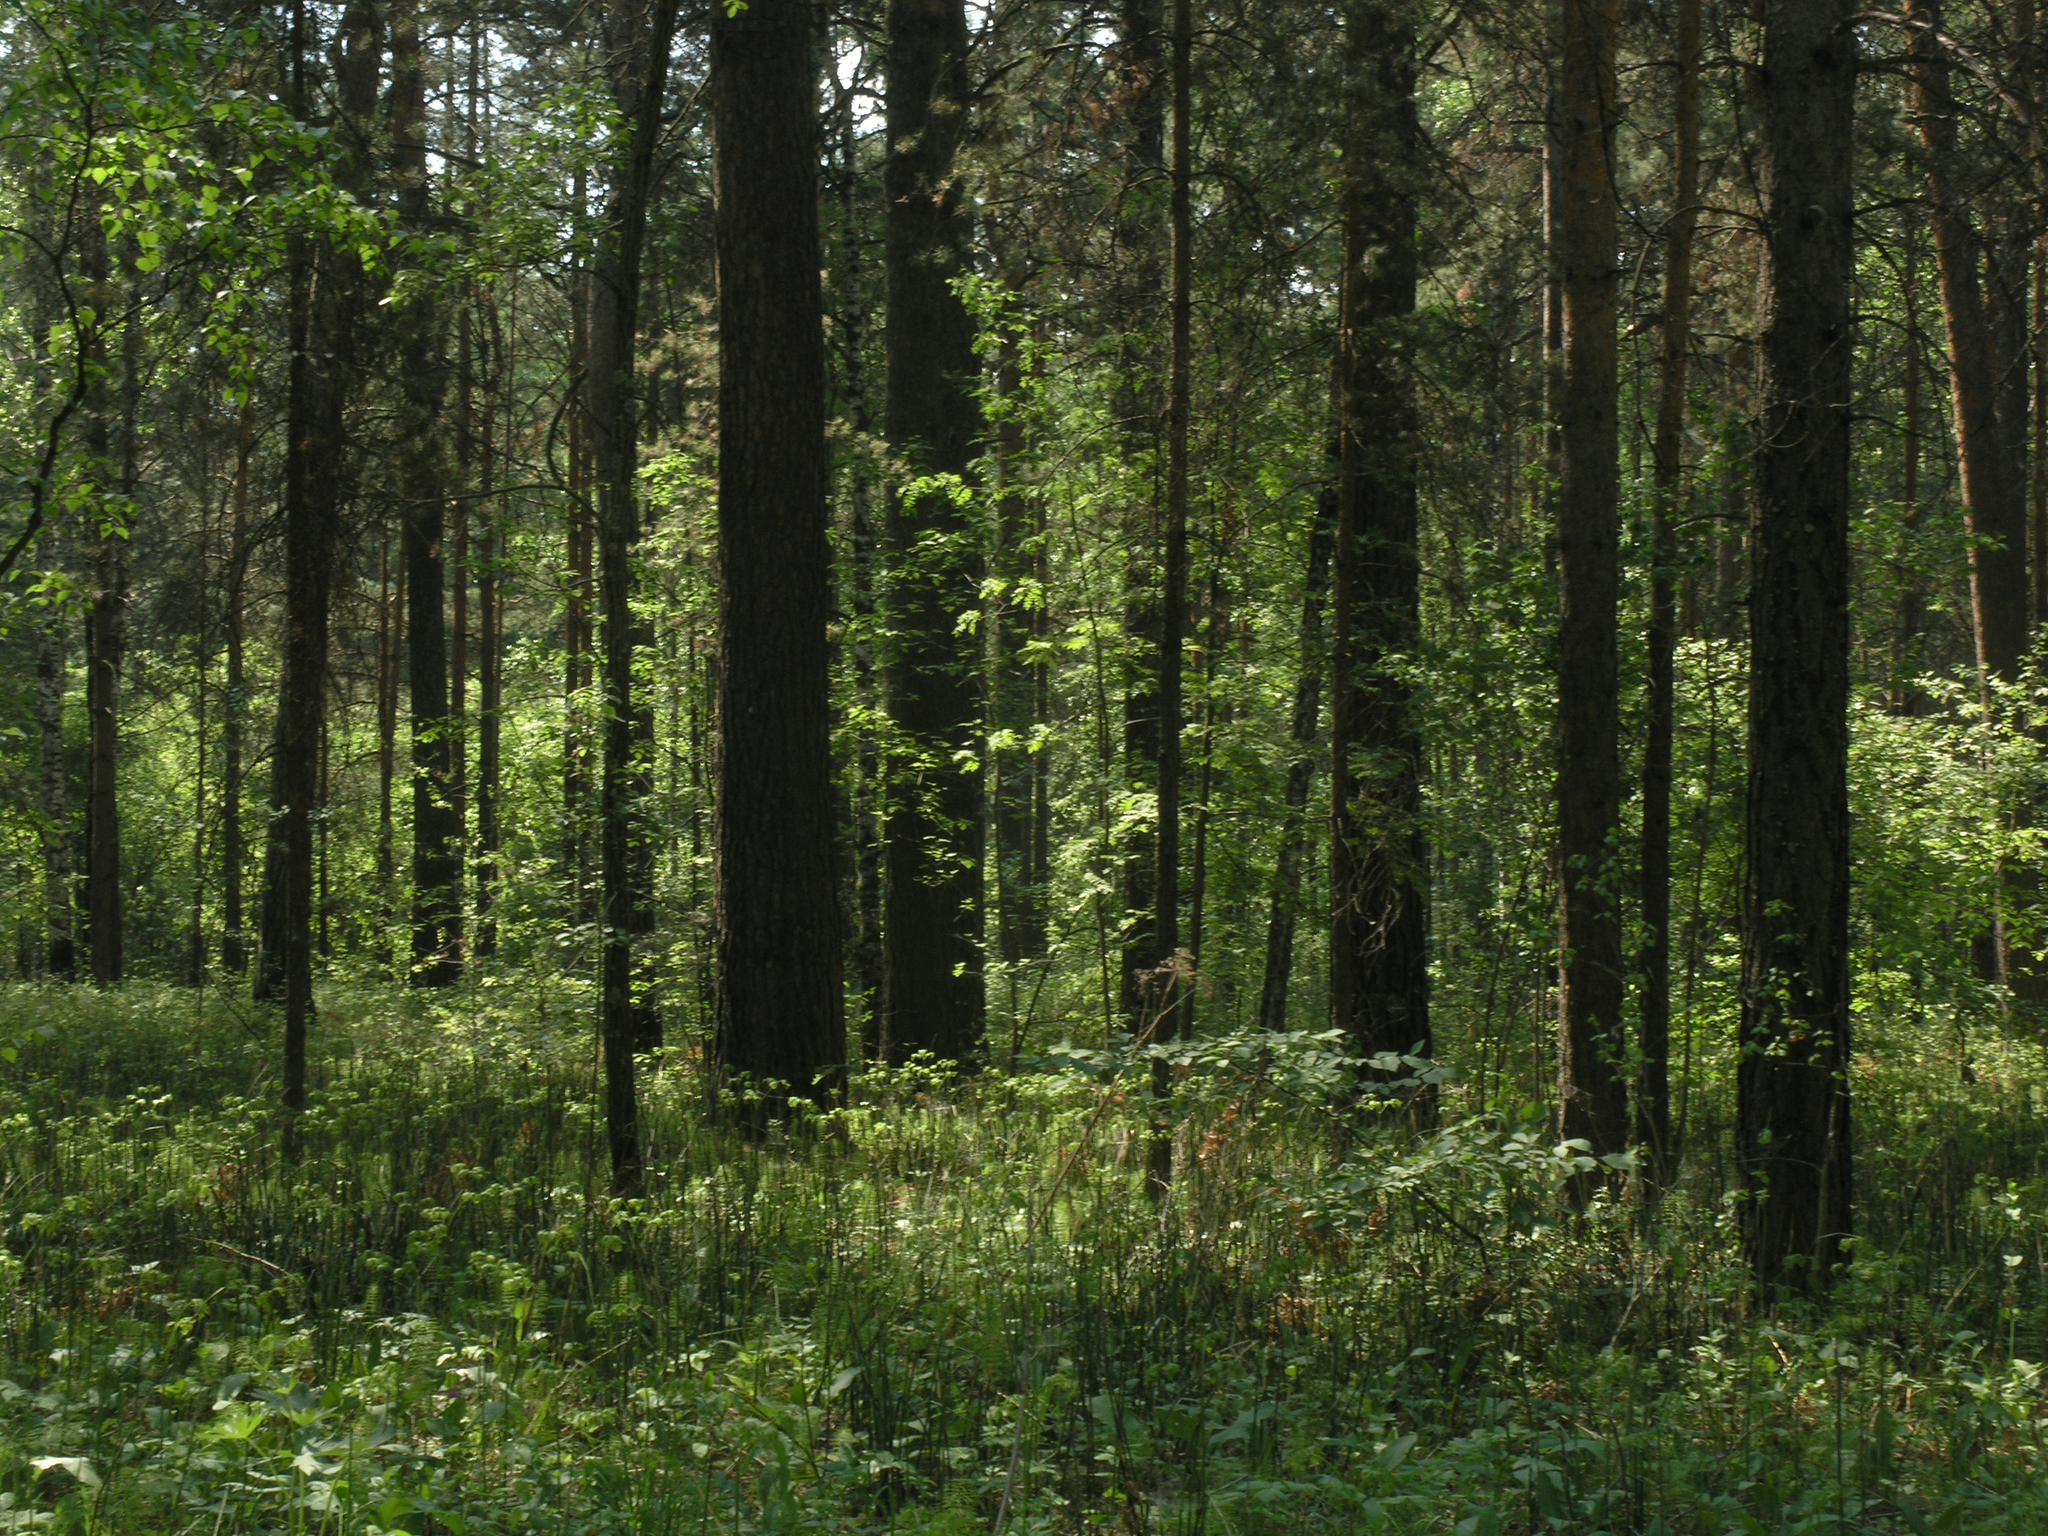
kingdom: Plantae
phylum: Tracheophyta
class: Pinopsida
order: Pinales
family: Pinaceae
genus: Pinus
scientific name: Pinus sylvestris
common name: Scots pine
